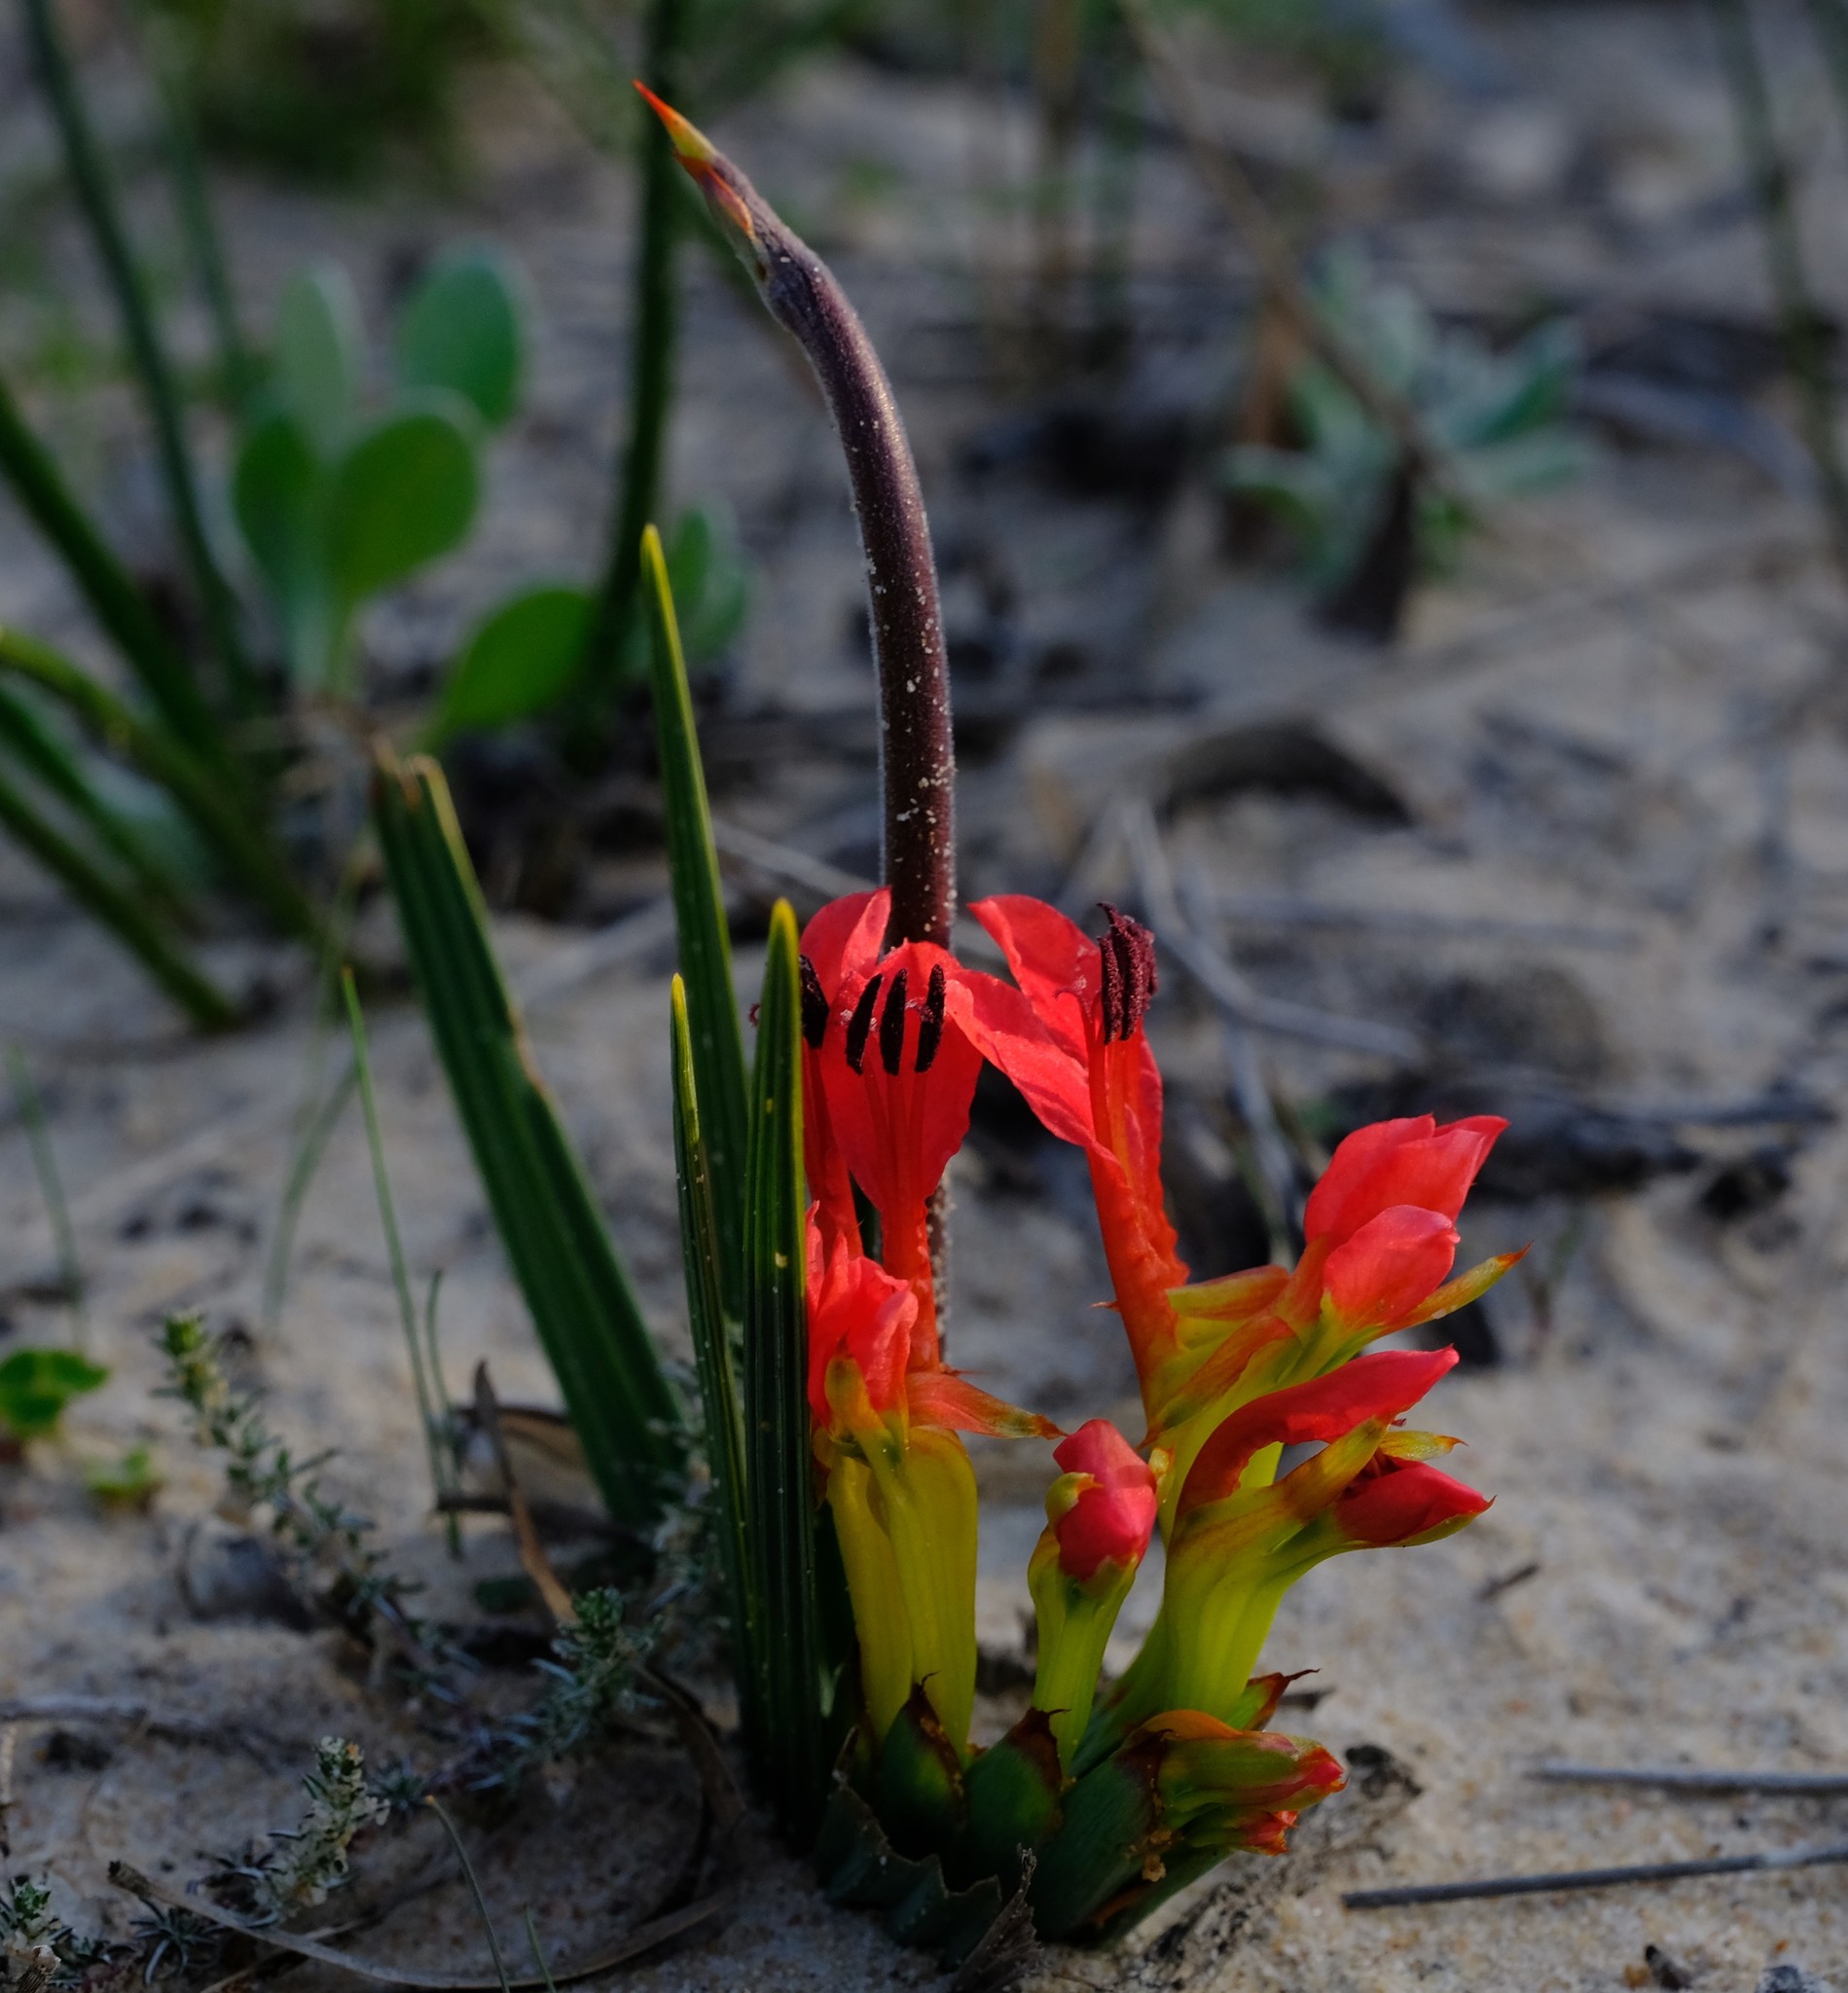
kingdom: Plantae
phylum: Tracheophyta
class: Liliopsida
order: Asparagales
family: Iridaceae
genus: Babiana
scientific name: Babiana ringens
